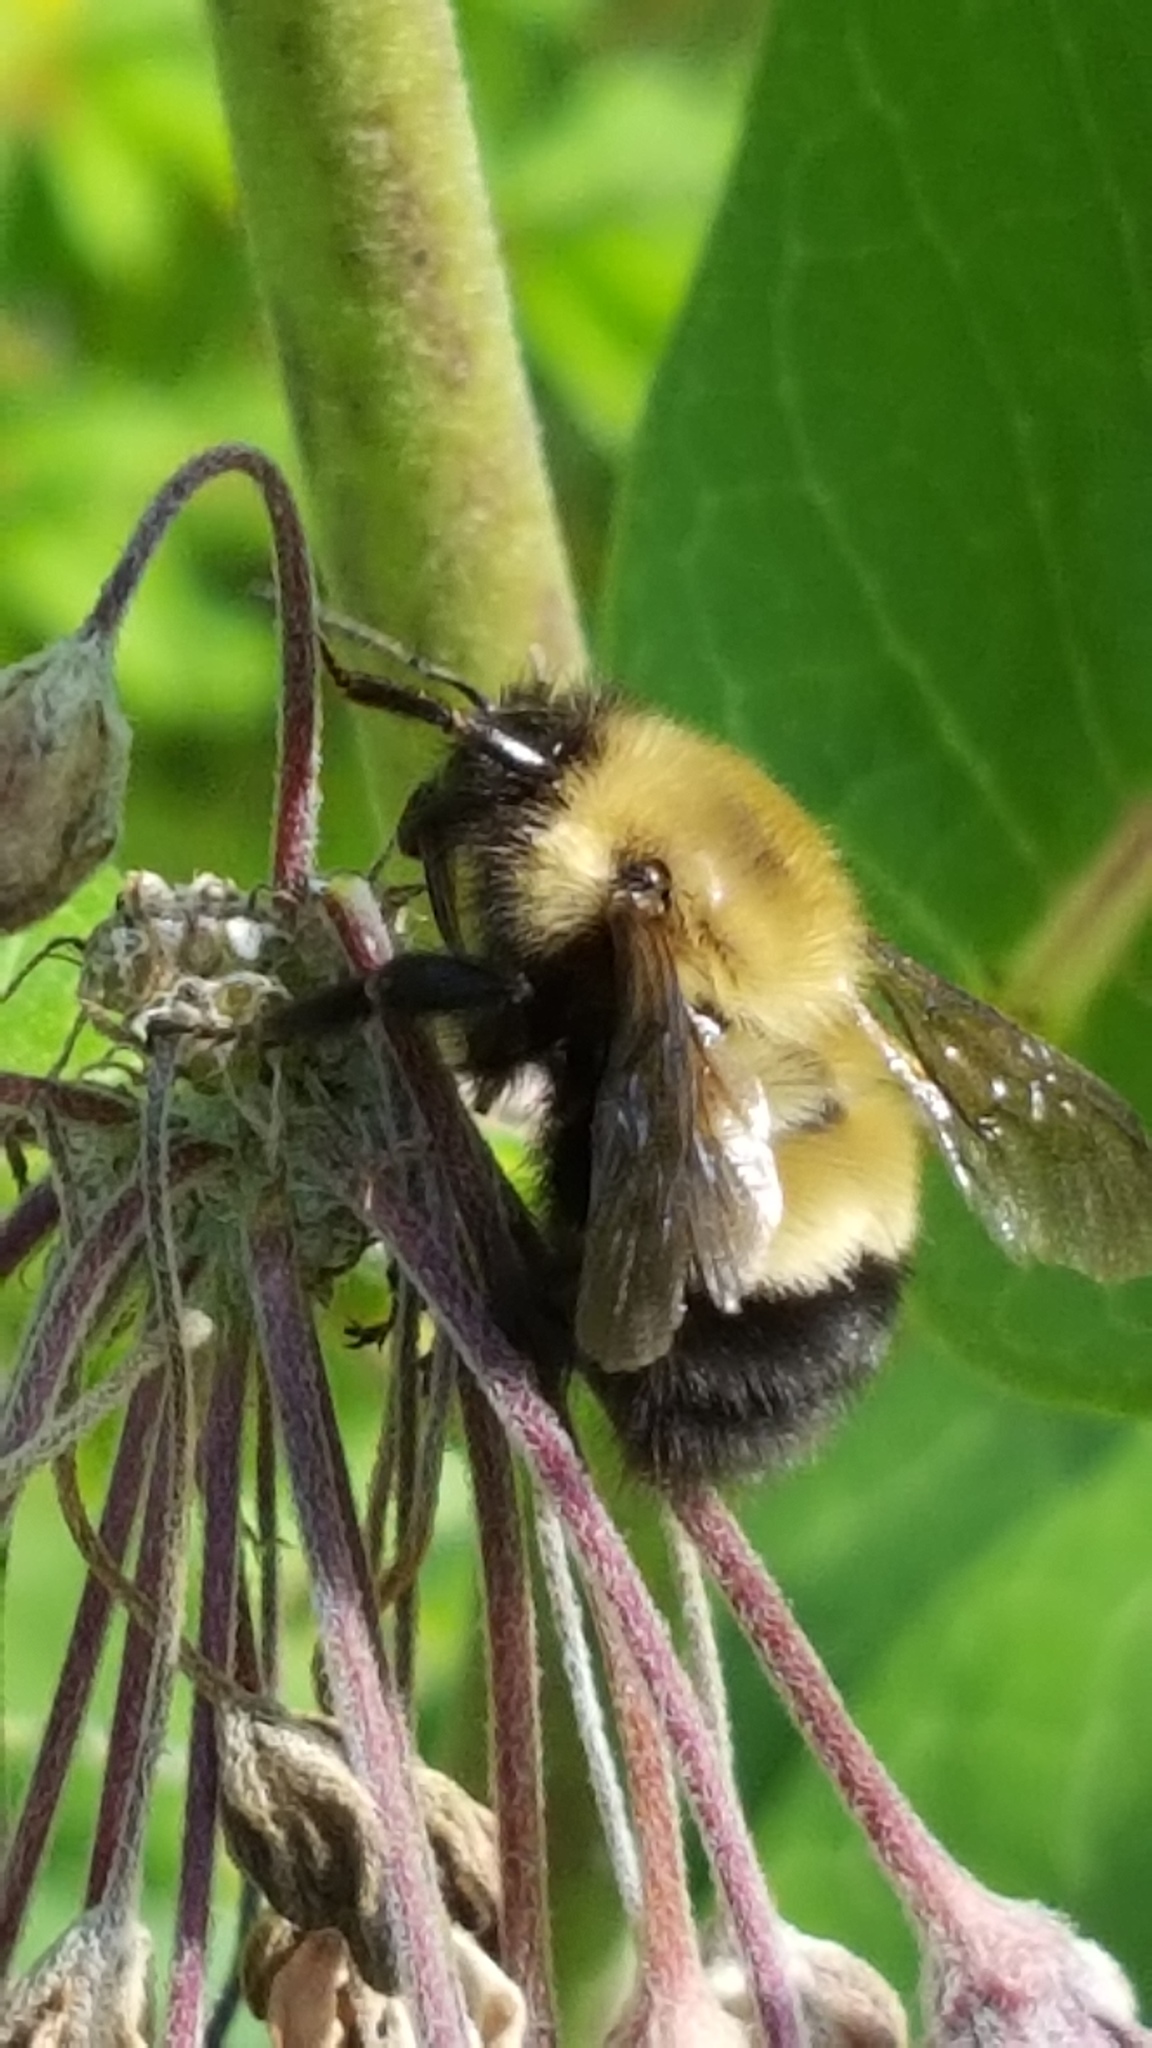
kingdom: Animalia
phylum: Arthropoda
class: Insecta
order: Hymenoptera
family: Apidae
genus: Bombus
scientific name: Bombus perplexus
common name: Confusing bumble bee
